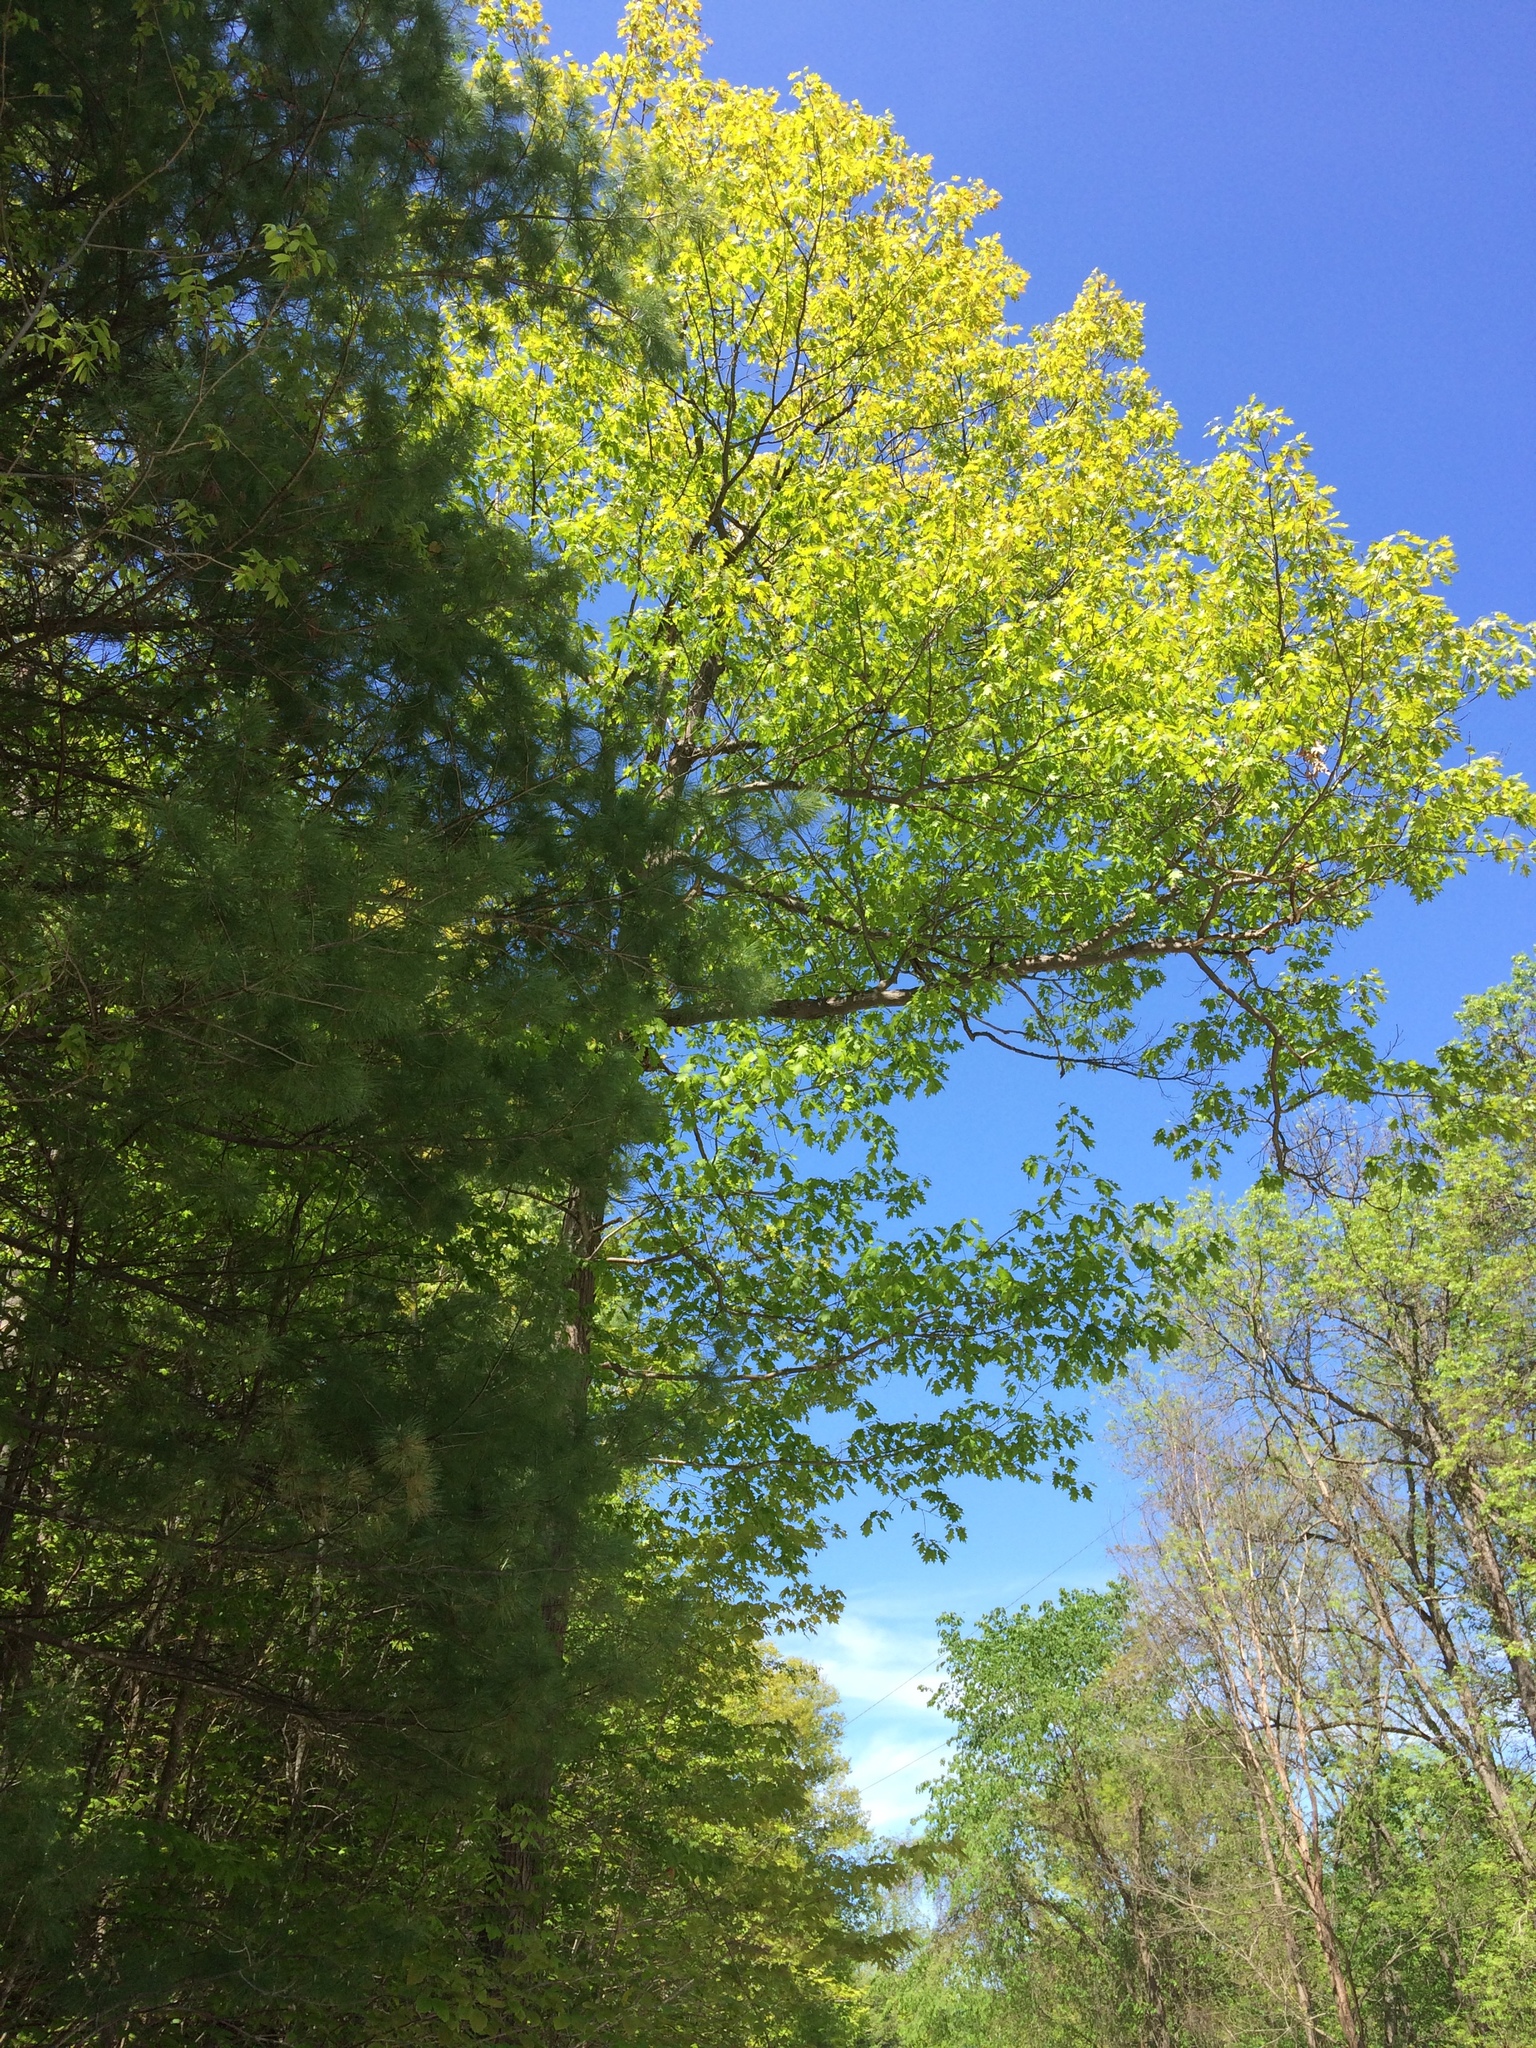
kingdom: Plantae
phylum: Tracheophyta
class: Magnoliopsida
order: Fagales
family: Fagaceae
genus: Quercus
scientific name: Quercus rubra
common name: Red oak
